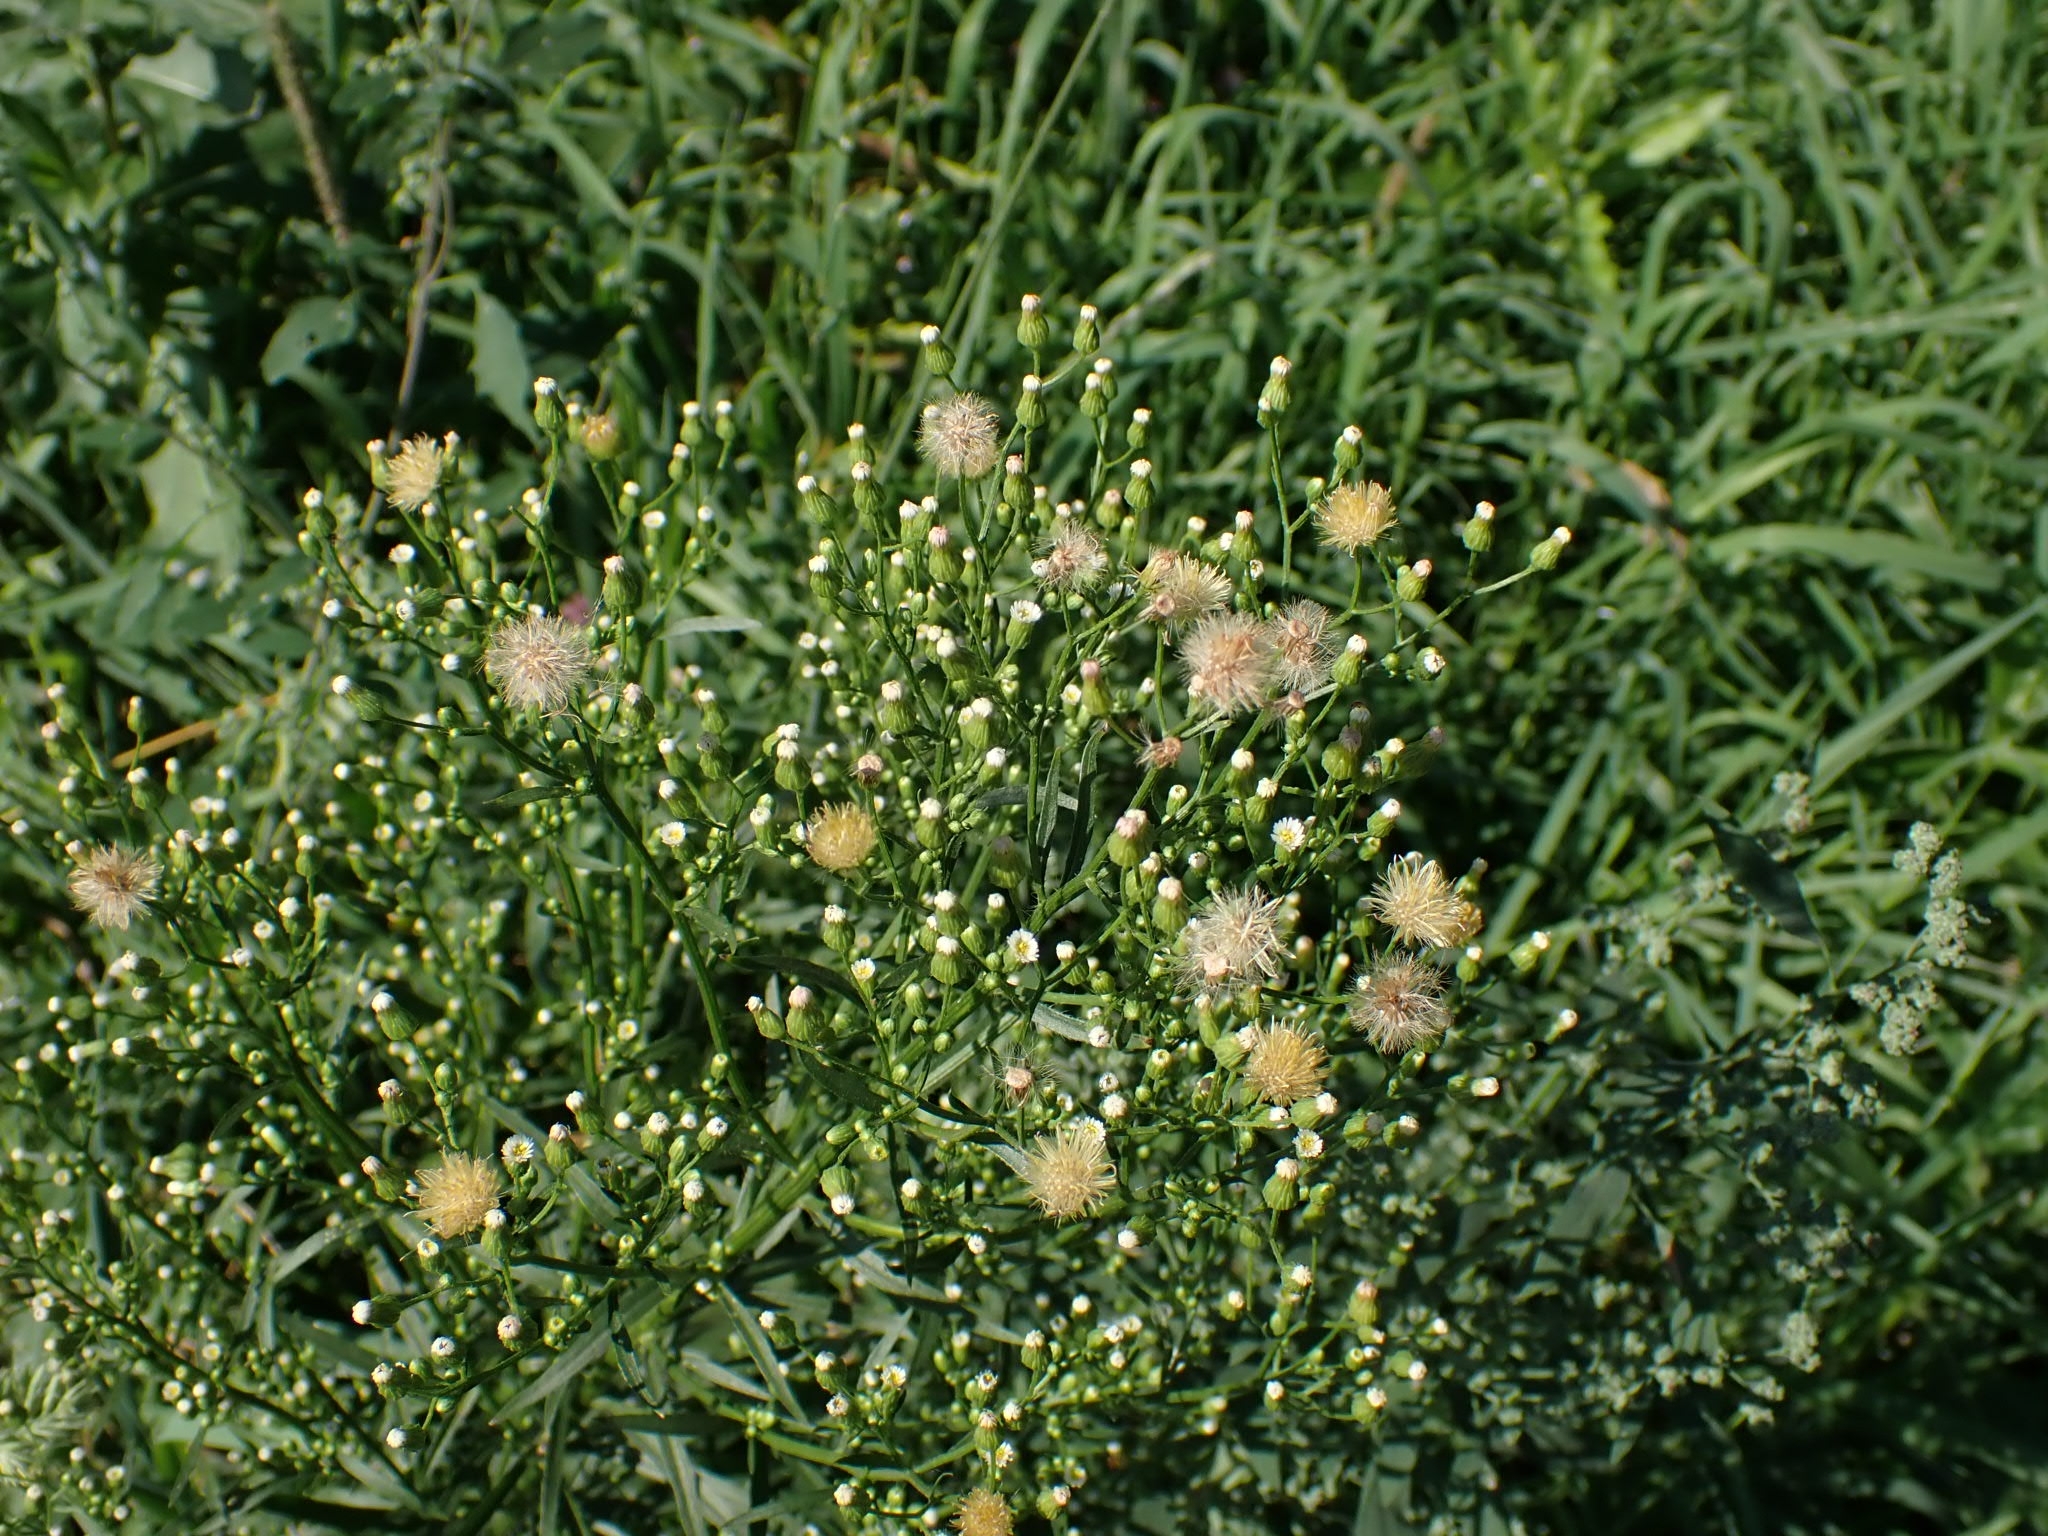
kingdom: Plantae
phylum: Tracheophyta
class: Magnoliopsida
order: Asterales
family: Asteraceae
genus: Erigeron
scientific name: Erigeron canadensis
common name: Canadian fleabane
